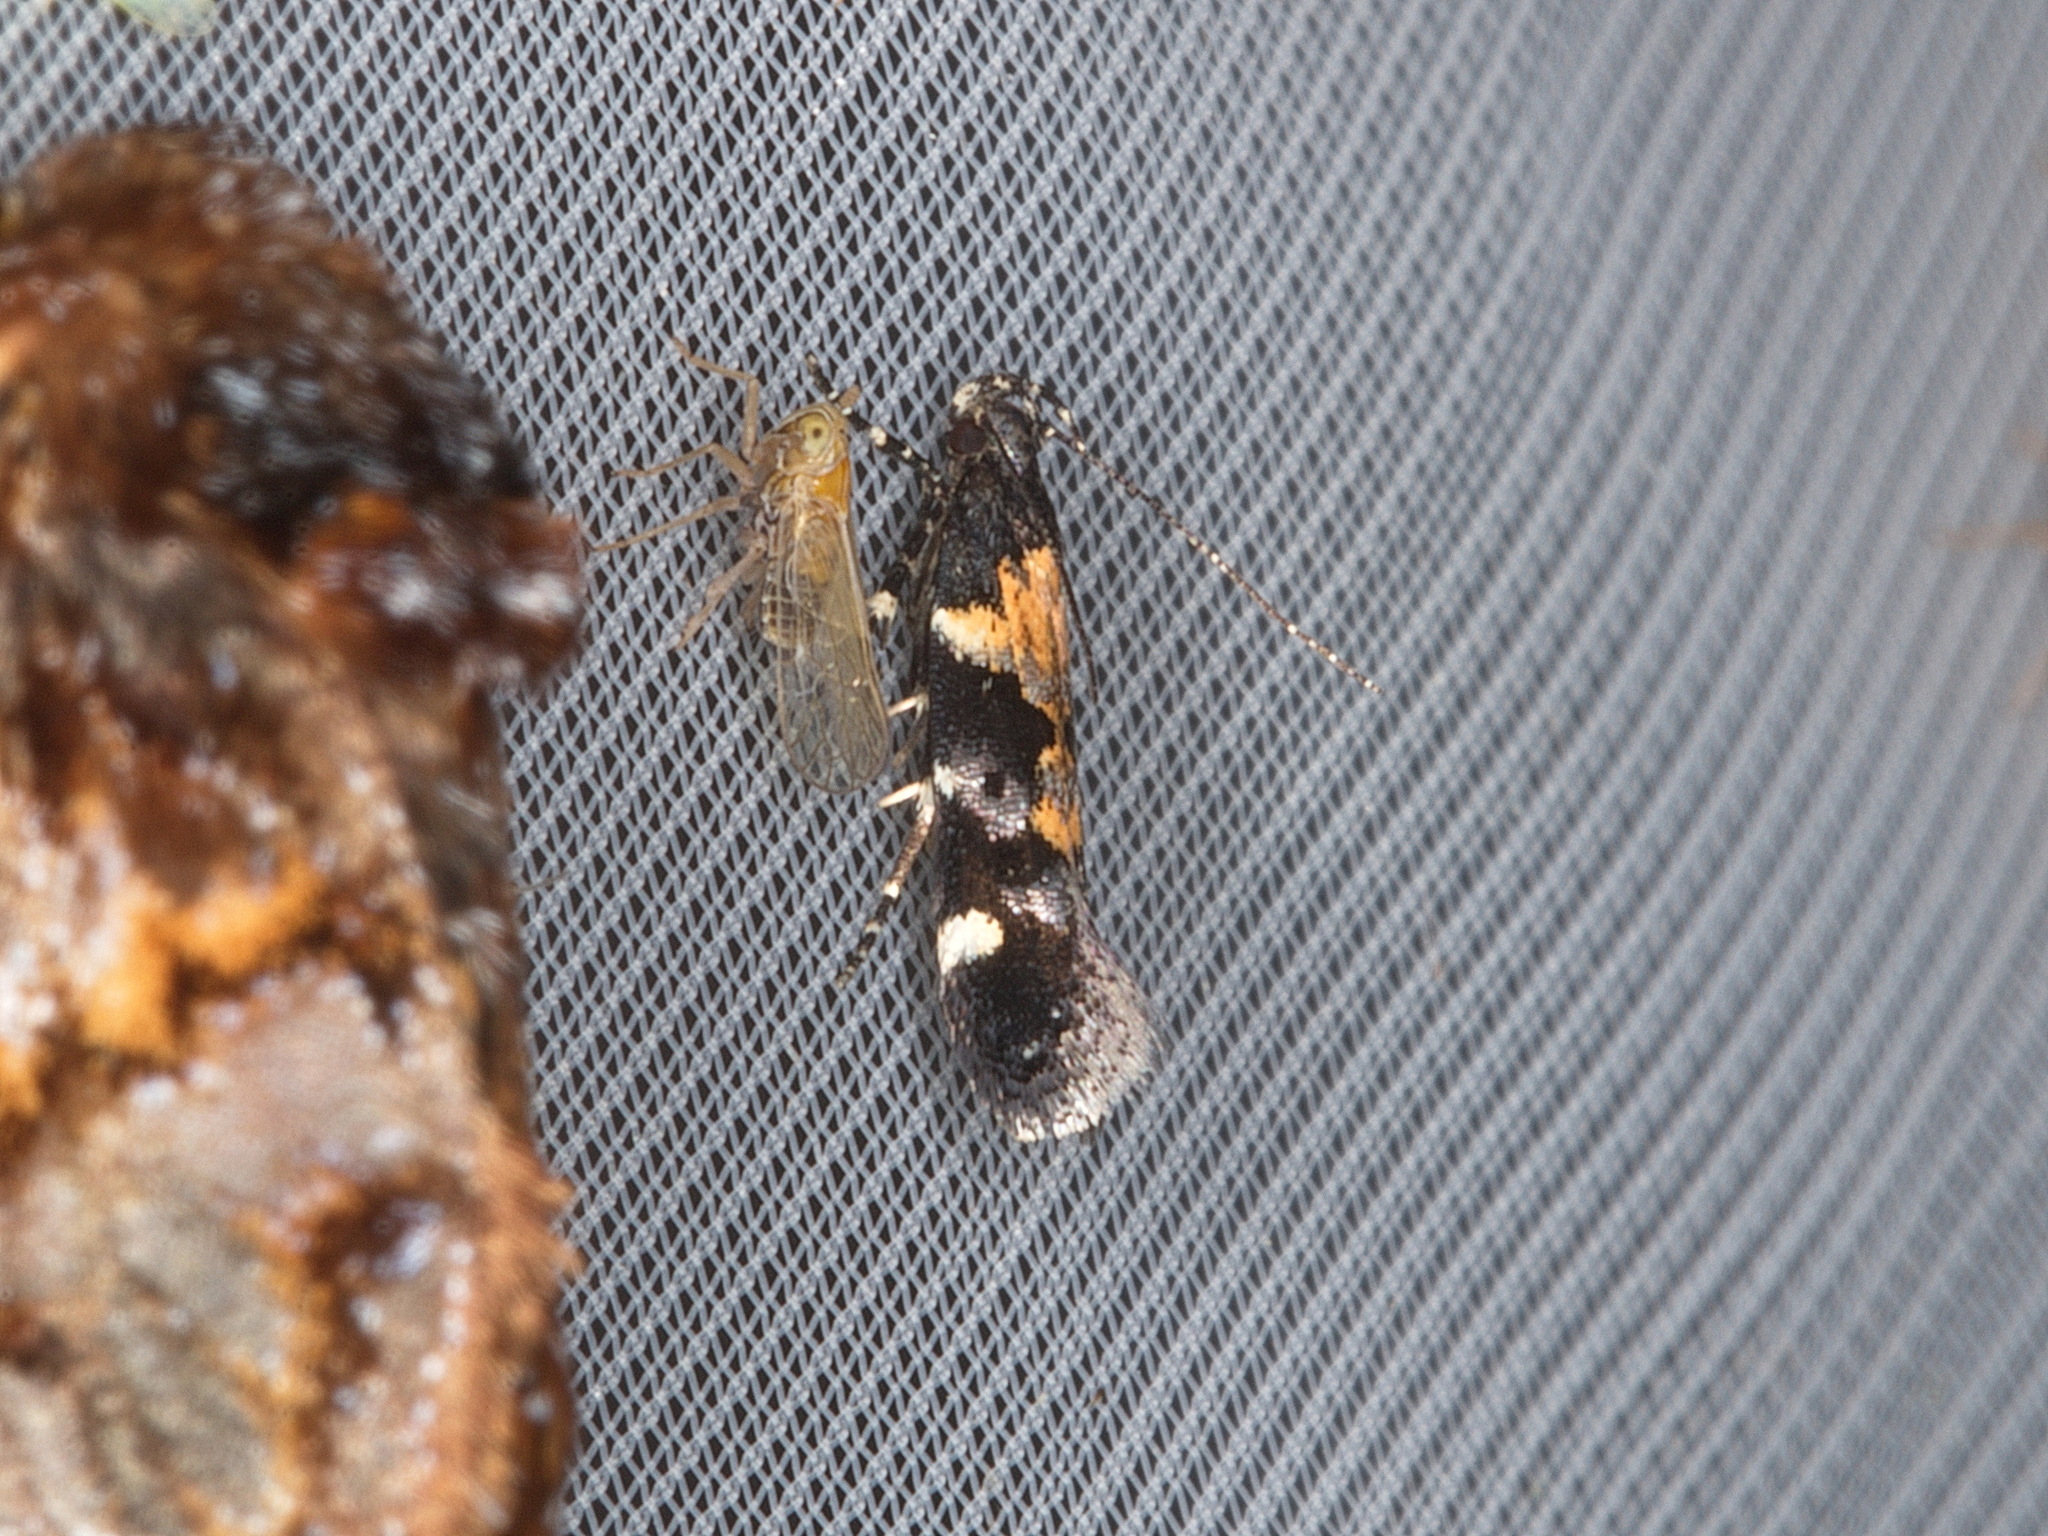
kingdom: Animalia
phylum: Arthropoda
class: Insecta
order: Lepidoptera
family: Gelechiidae
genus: Stegasta
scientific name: Stegasta bosqueella
